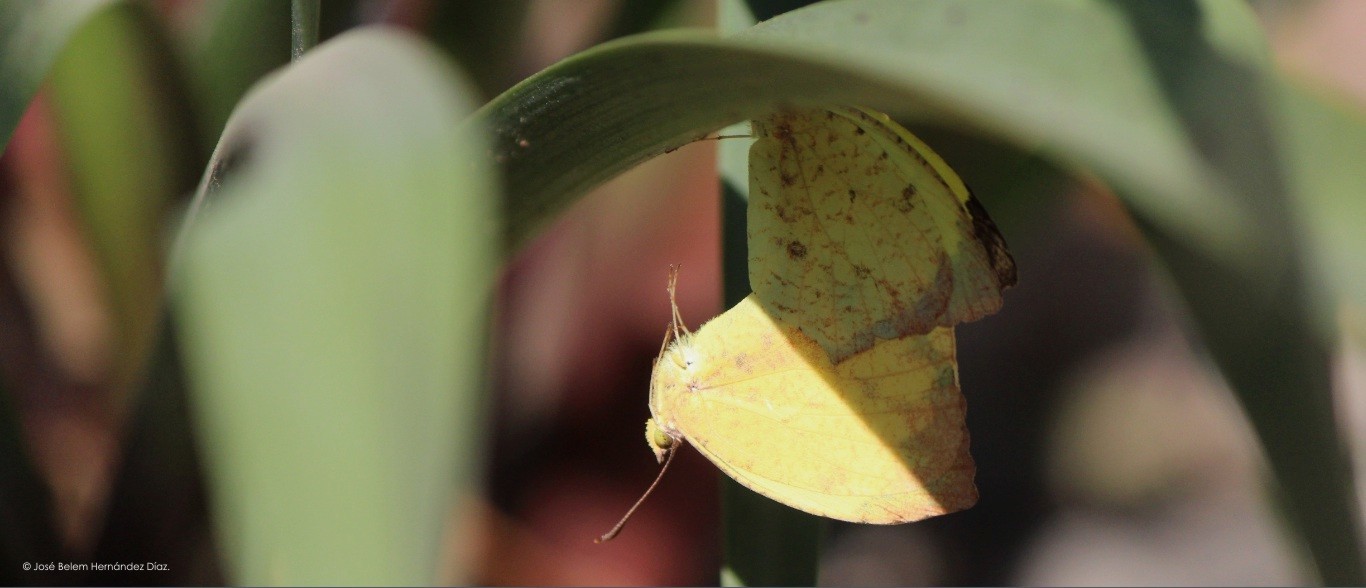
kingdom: Animalia
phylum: Arthropoda
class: Insecta
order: Lepidoptera
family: Pieridae
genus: Abaeis
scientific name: Abaeis salome
